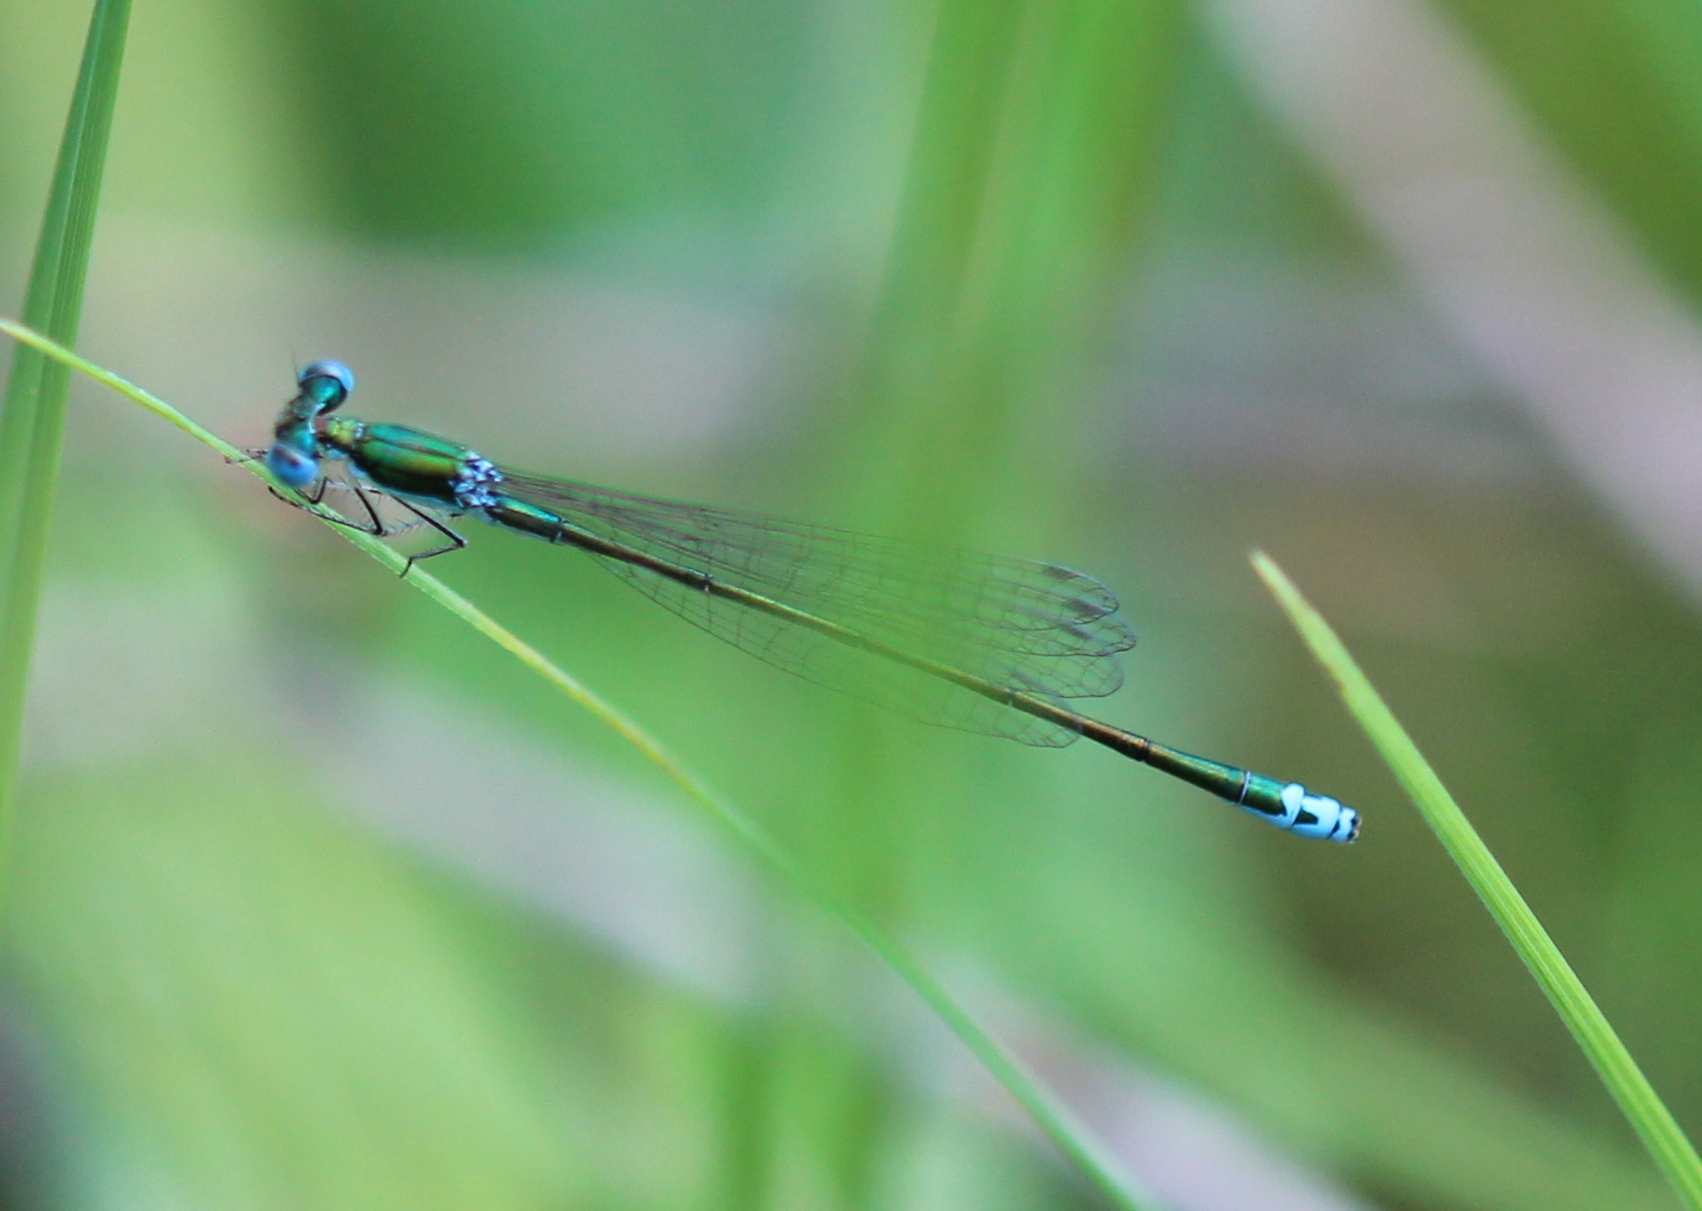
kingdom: Animalia
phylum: Arthropoda
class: Insecta
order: Odonata
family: Coenagrionidae
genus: Nehalennia
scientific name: Nehalennia irene
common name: Sedge sprite
